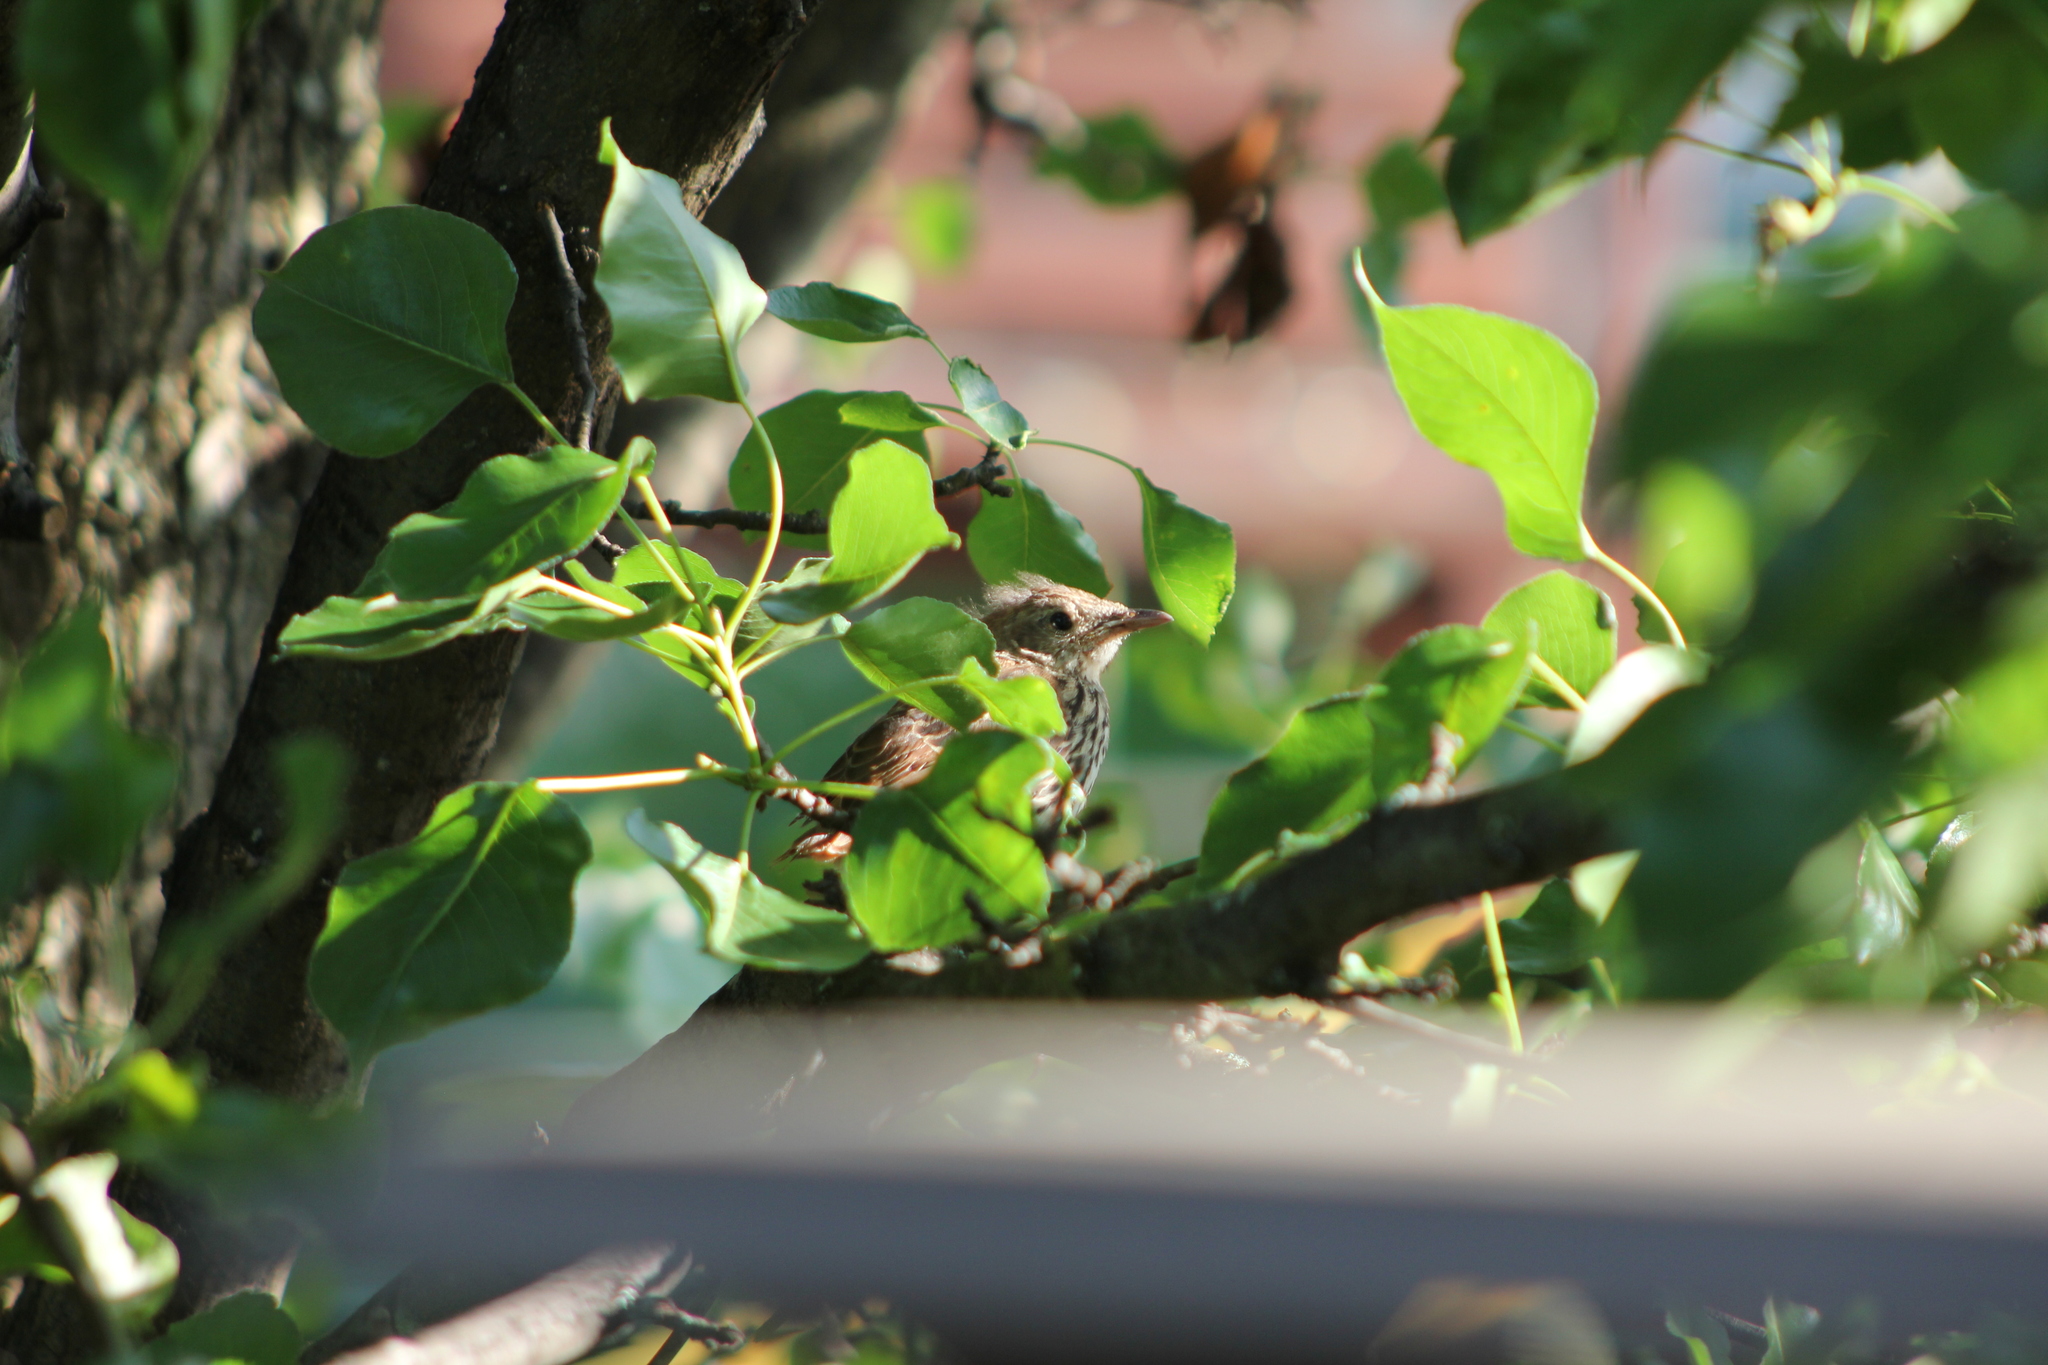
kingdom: Animalia
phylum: Chordata
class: Aves
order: Passeriformes
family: Mimidae
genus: Toxostoma
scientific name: Toxostoma rufum
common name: Brown thrasher
